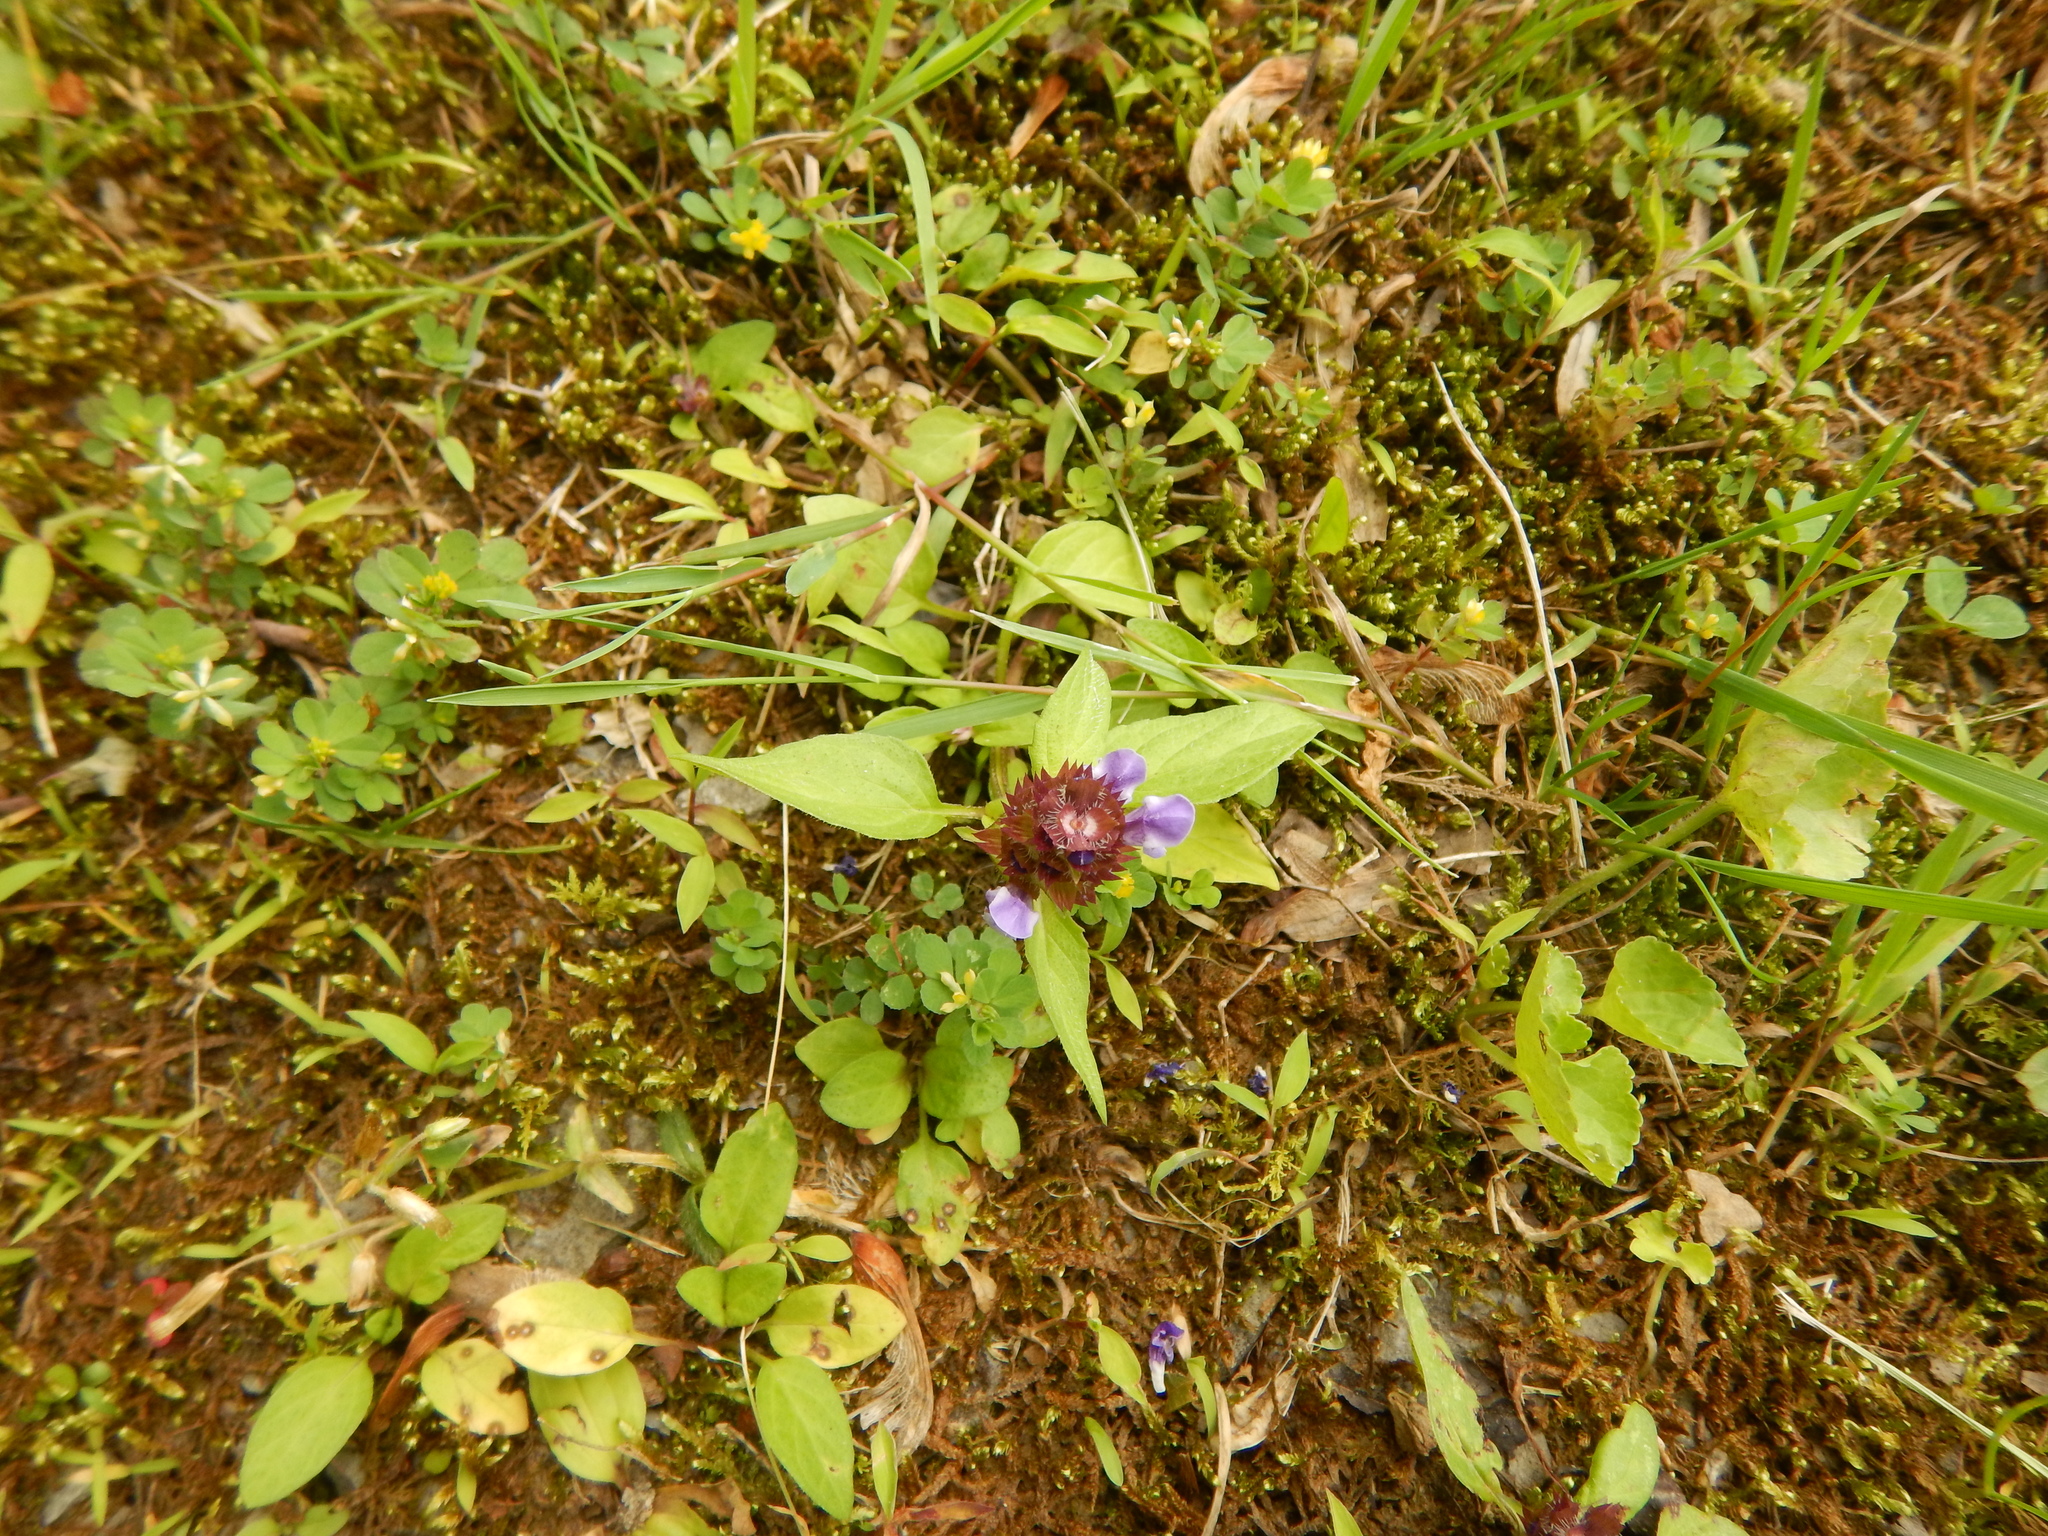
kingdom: Plantae
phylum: Tracheophyta
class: Magnoliopsida
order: Lamiales
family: Lamiaceae
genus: Prunella
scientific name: Prunella vulgaris
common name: Heal-all
